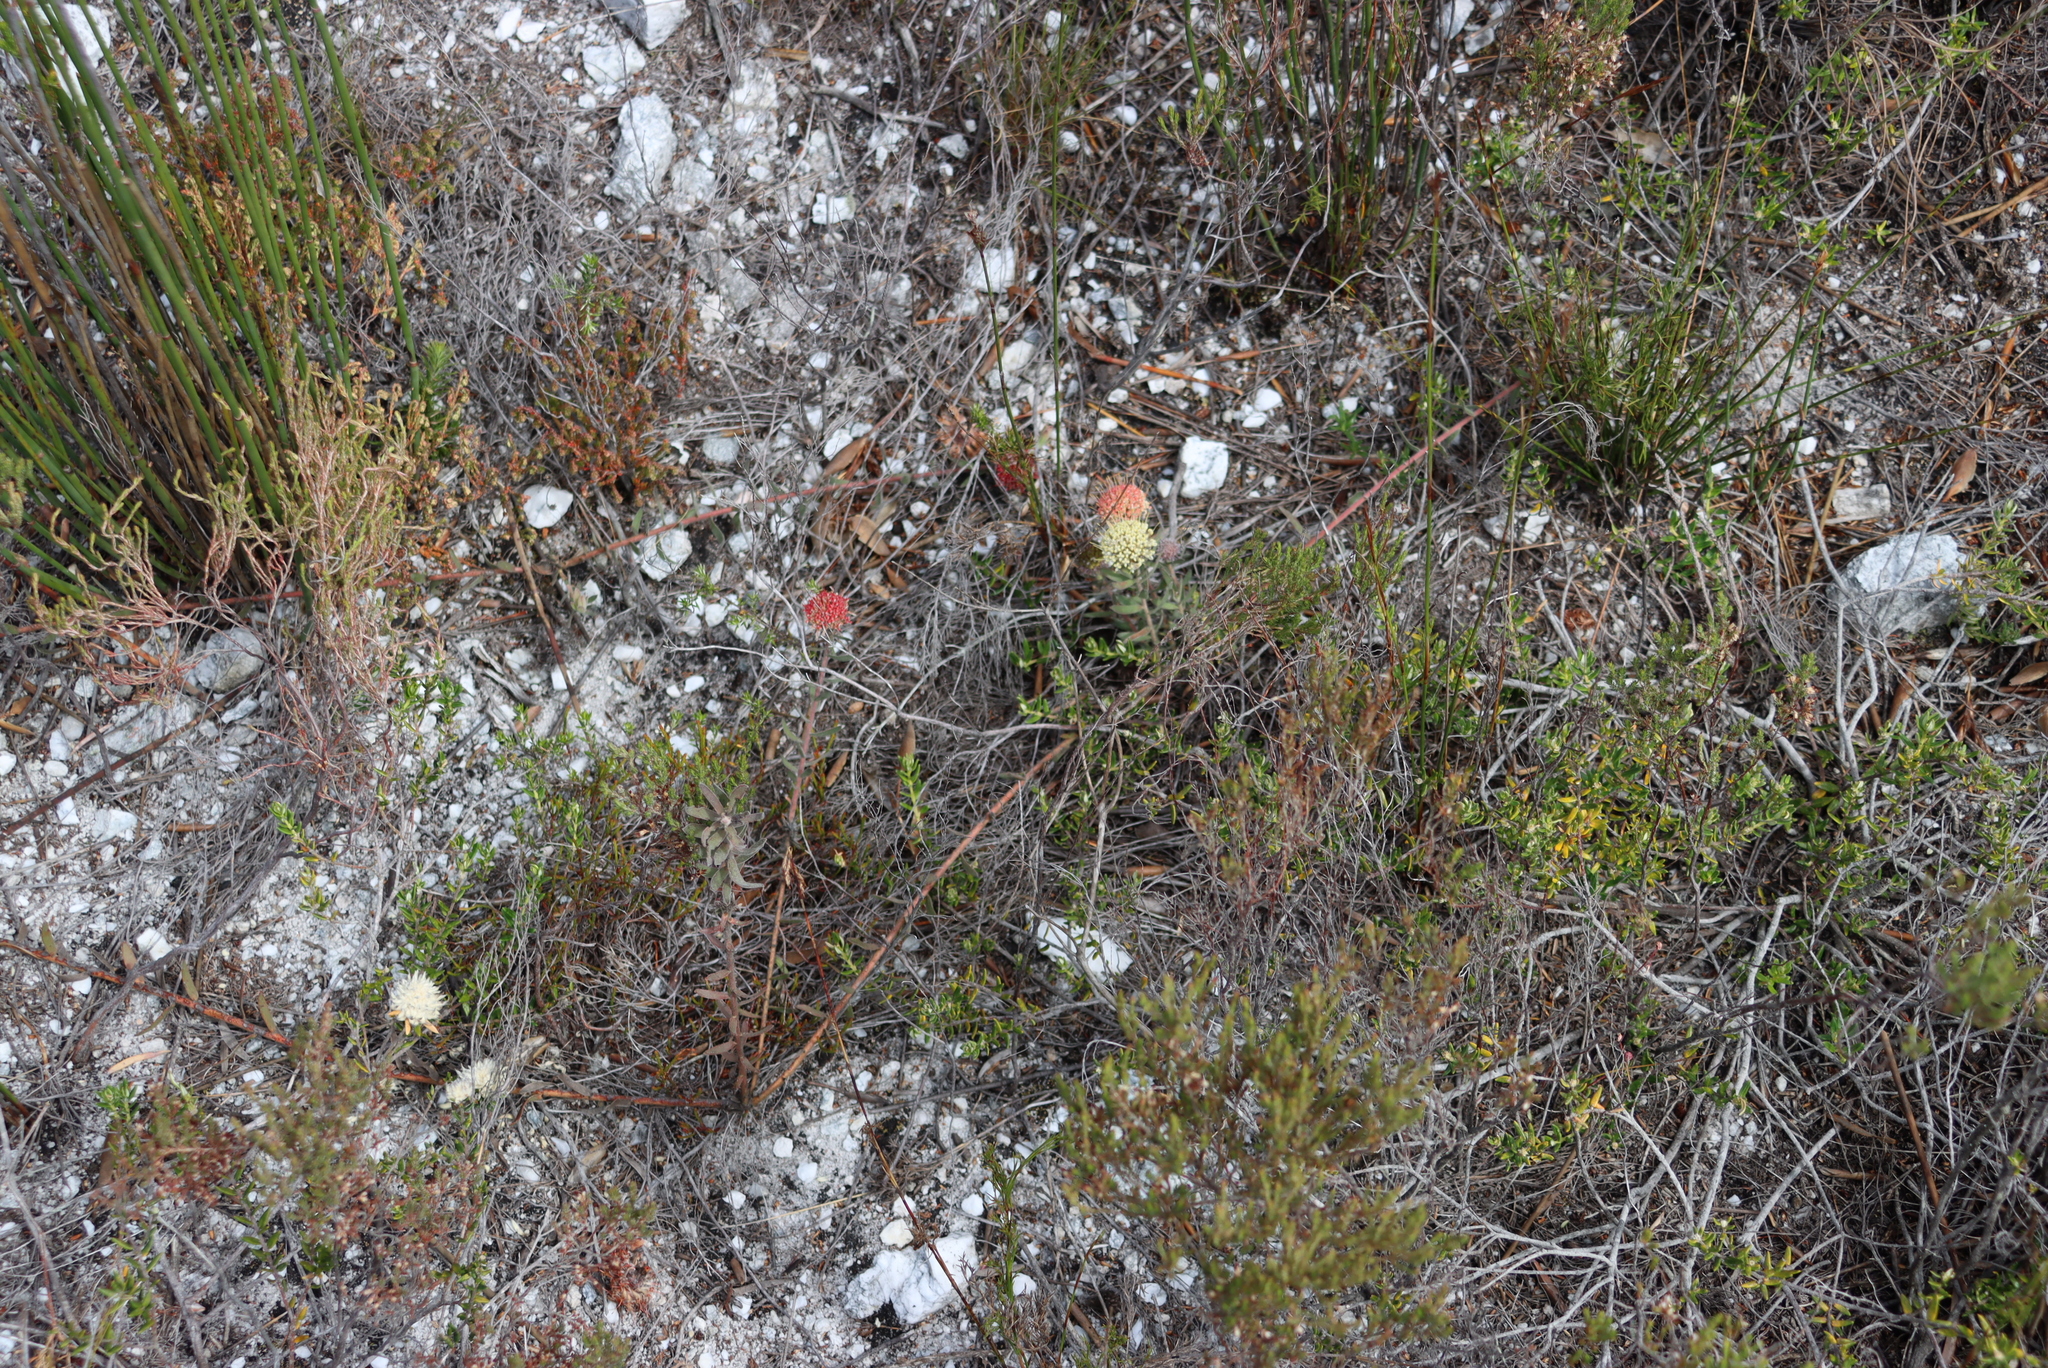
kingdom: Plantae
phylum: Tracheophyta
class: Magnoliopsida
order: Proteales
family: Proteaceae
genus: Leucospermum
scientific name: Leucospermum pedunculatum
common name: White-trailing pincushion
